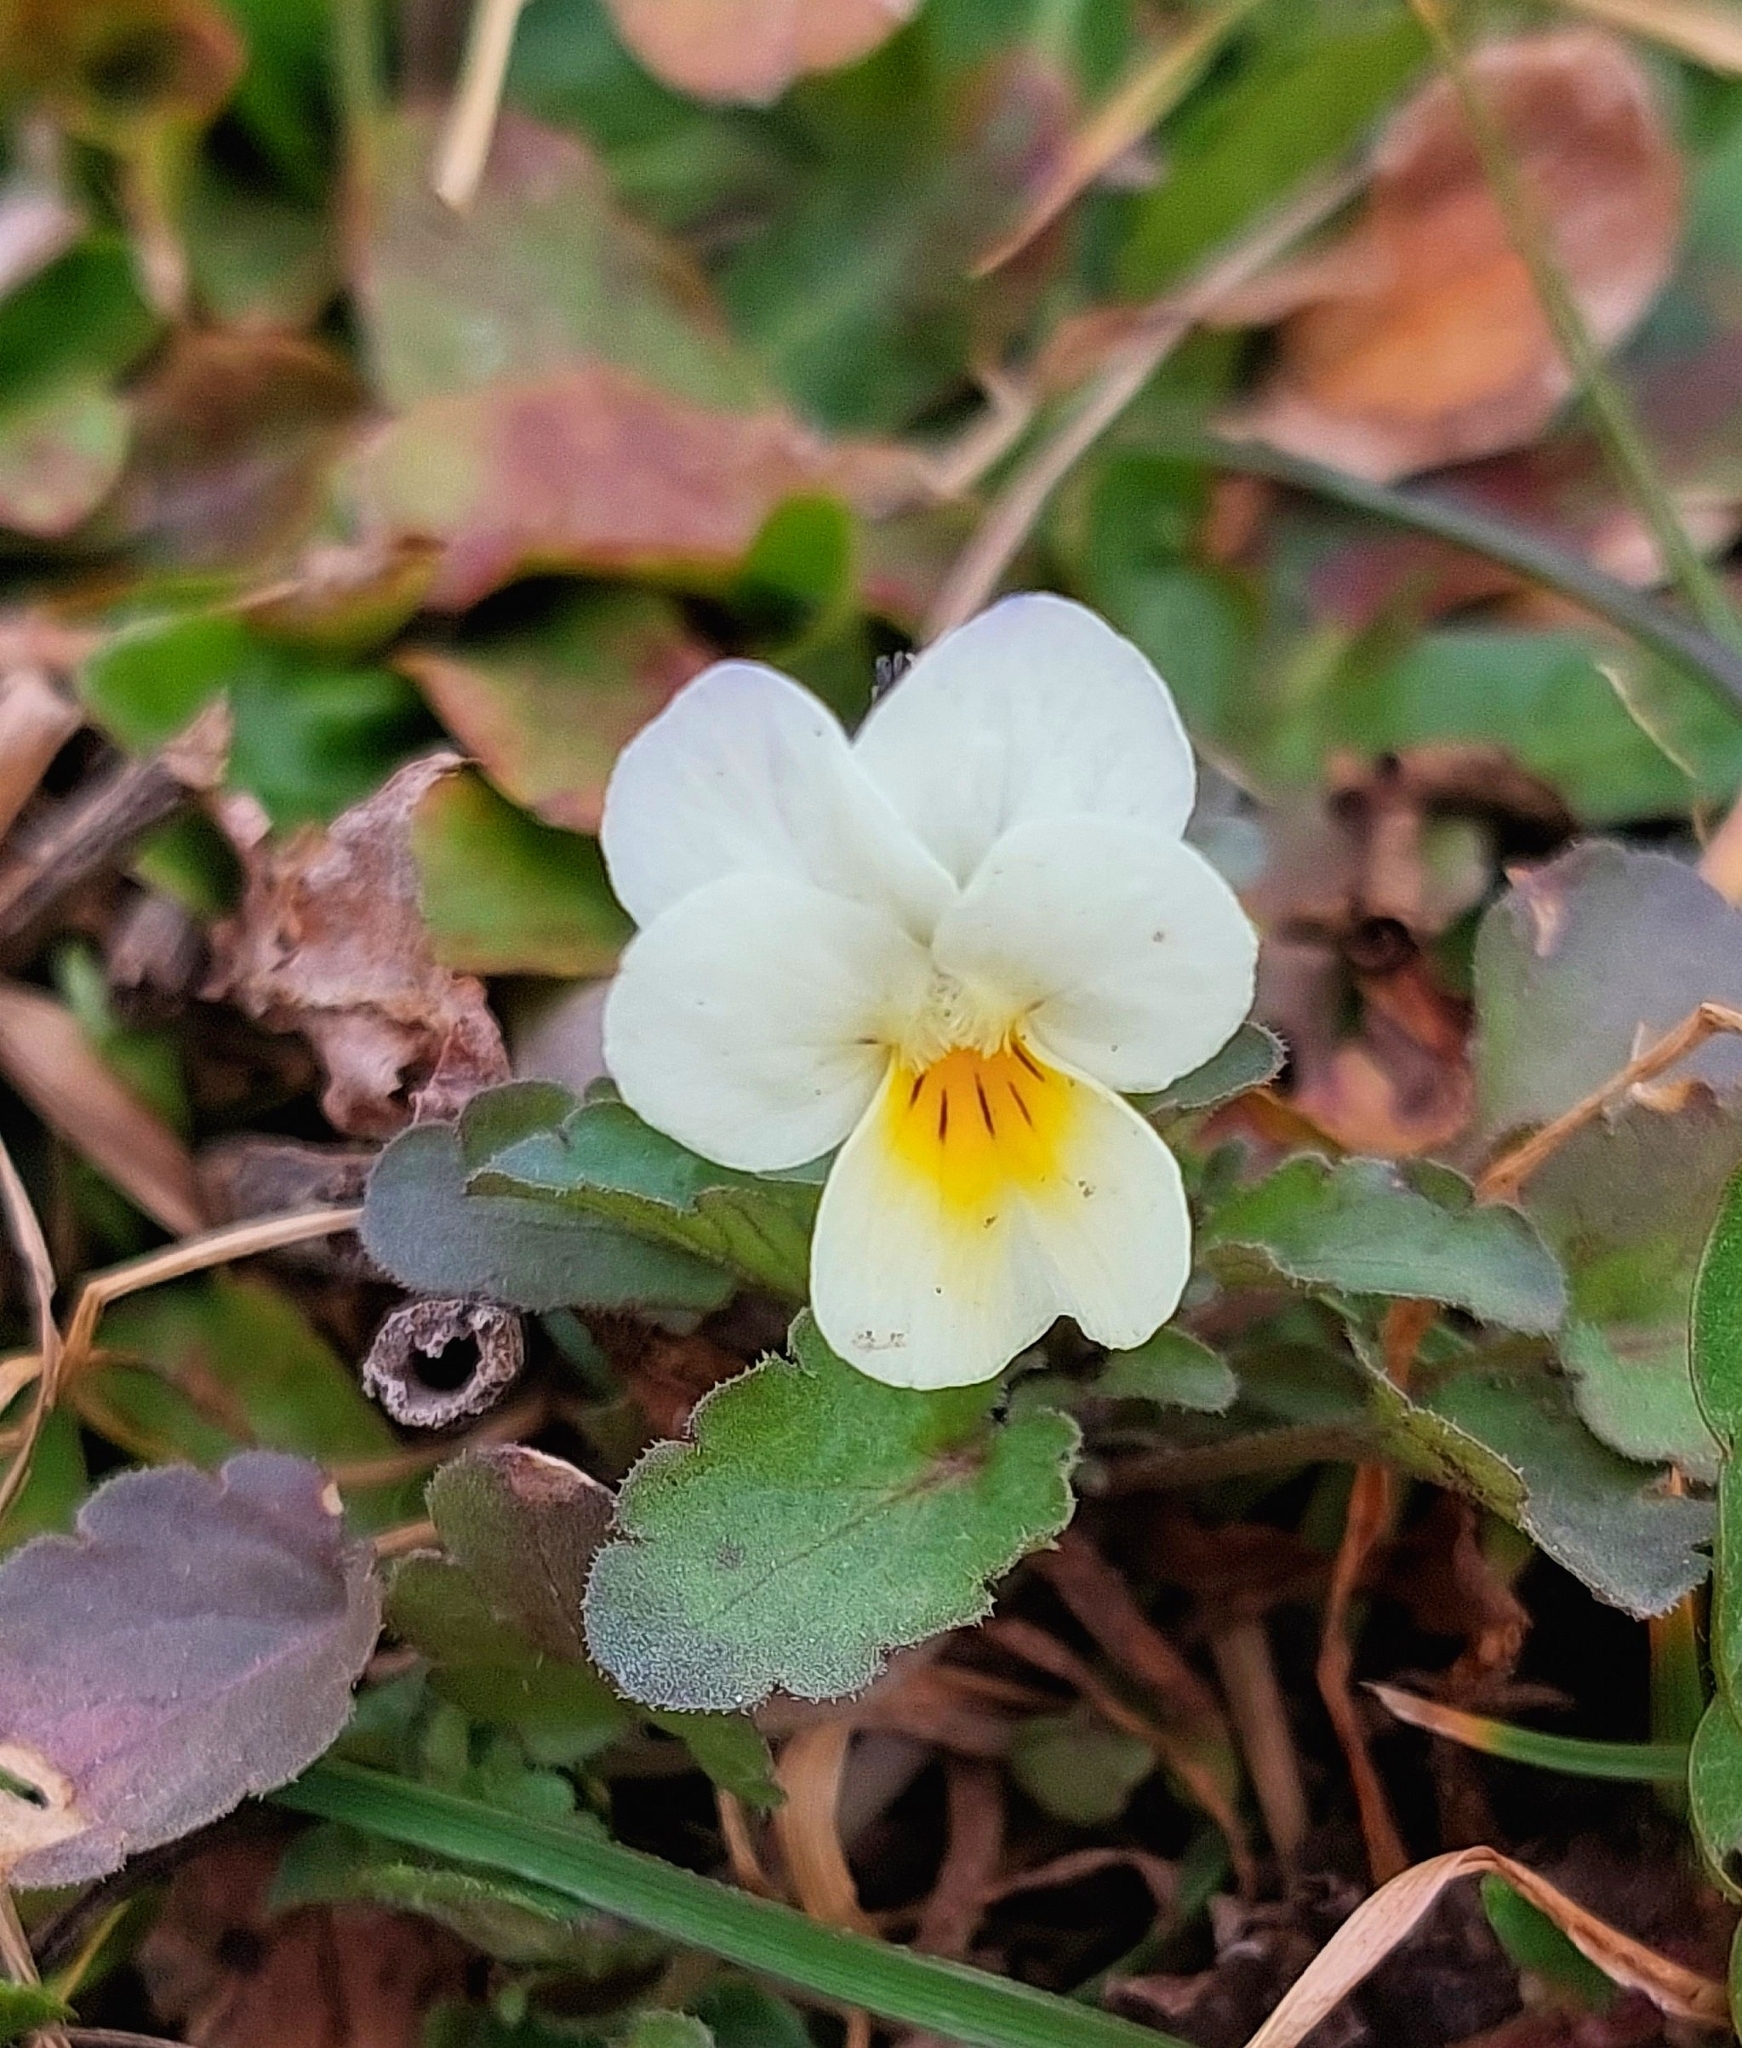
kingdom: Plantae
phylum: Tracheophyta
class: Magnoliopsida
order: Malpighiales
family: Violaceae
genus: Viola
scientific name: Viola arvensis
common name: Field pansy
